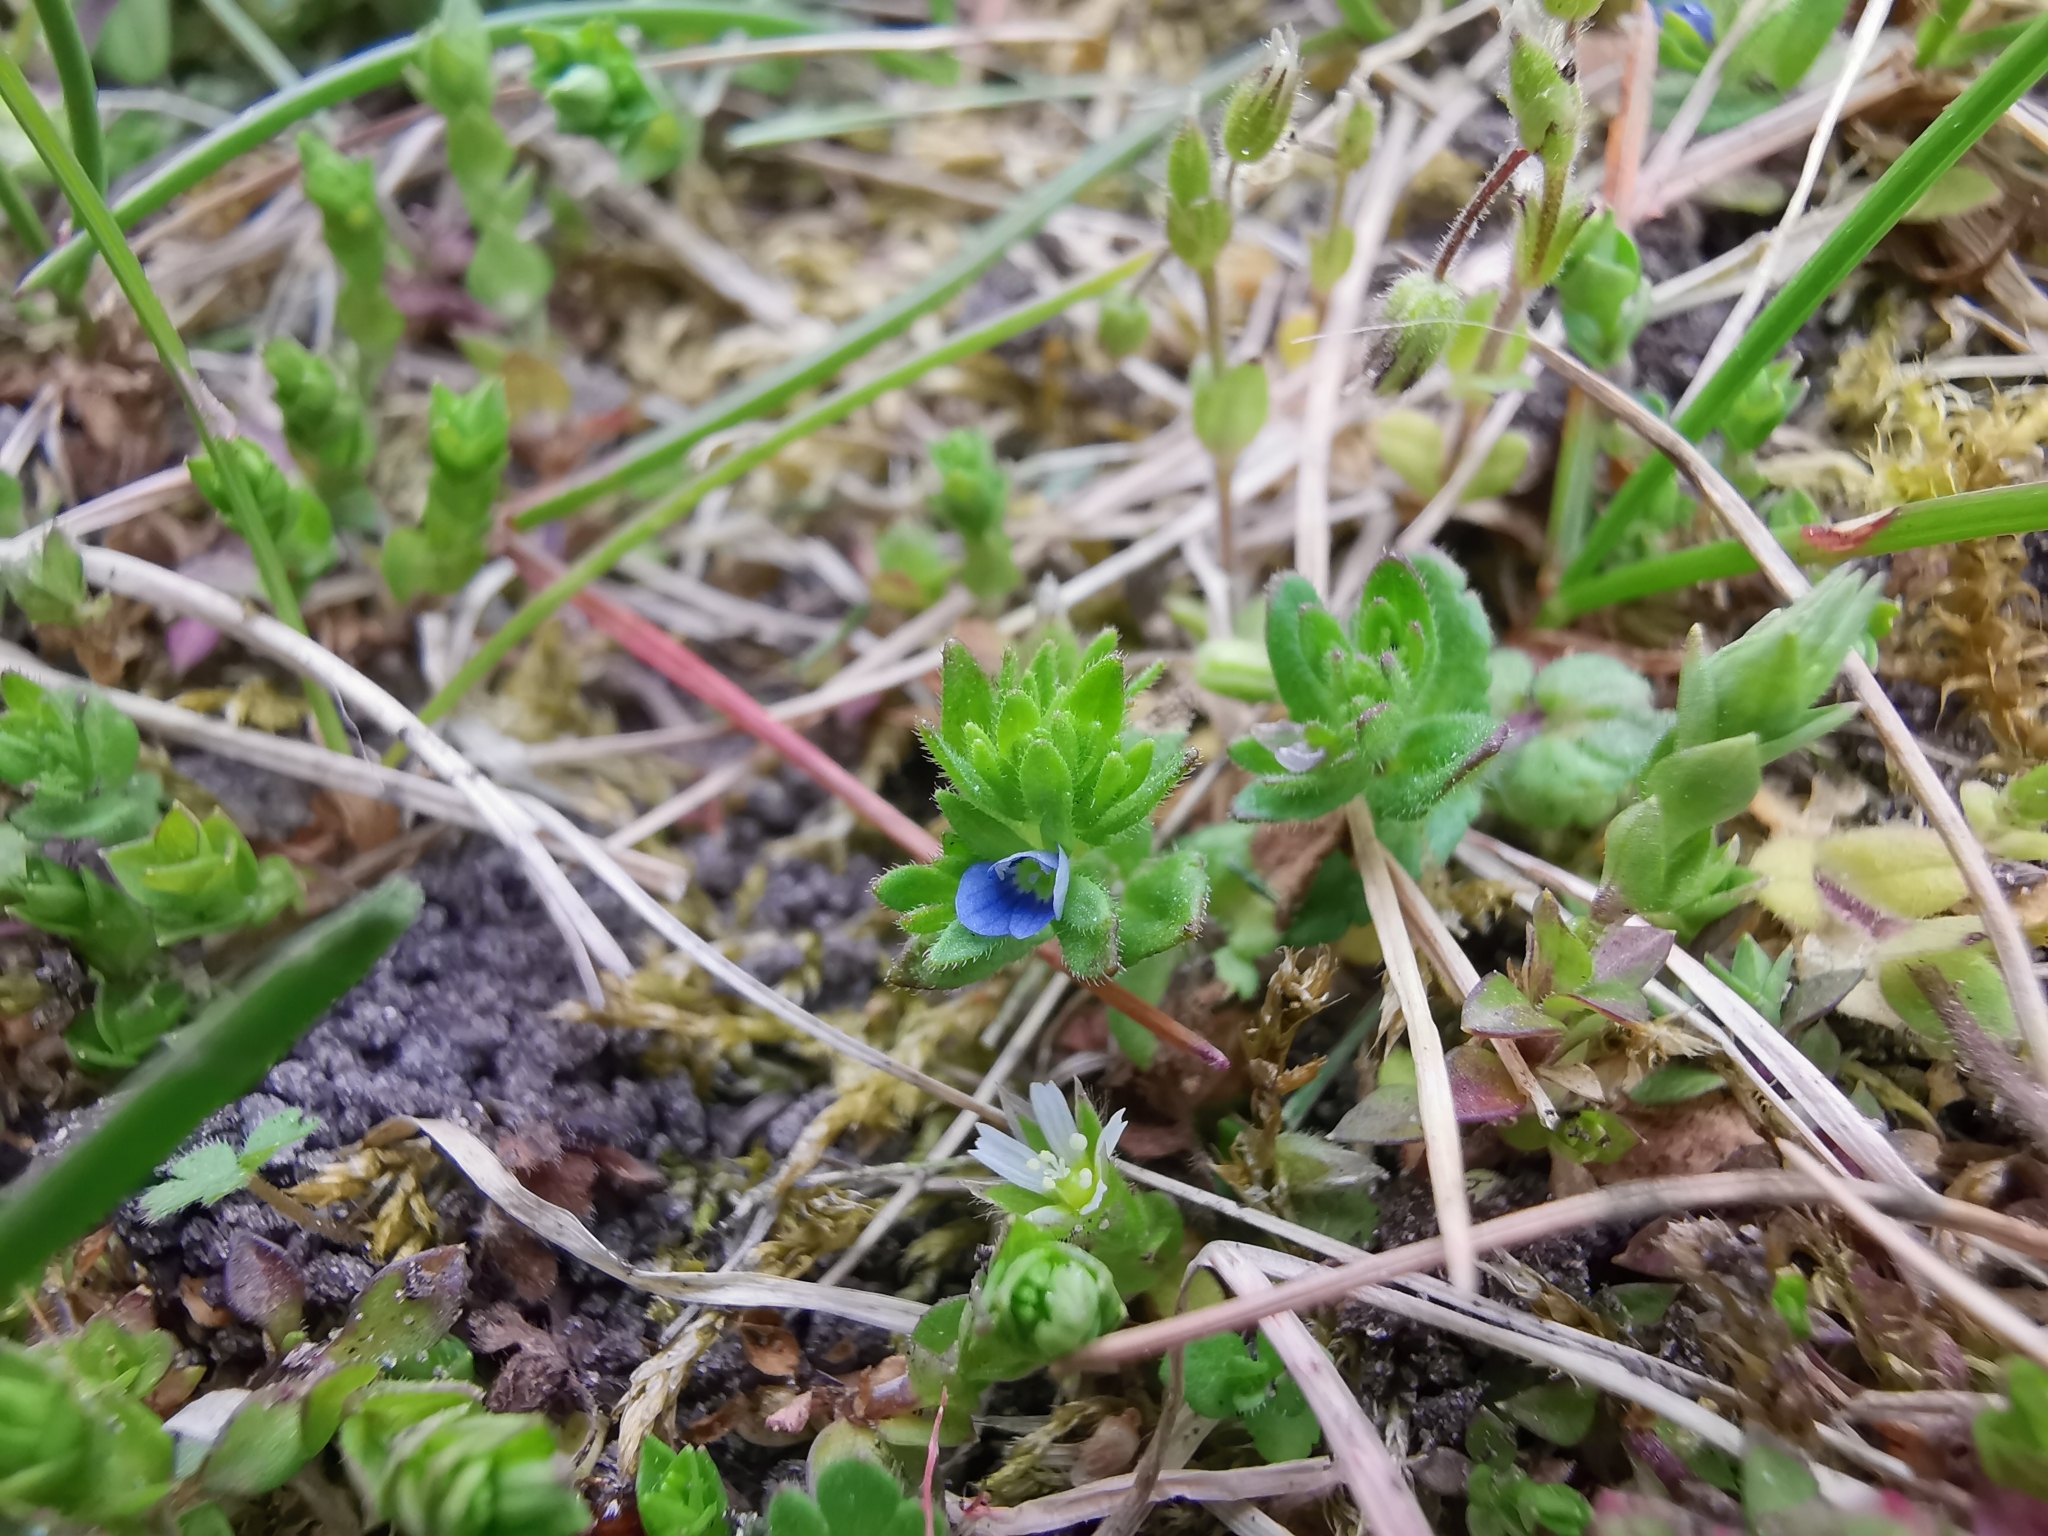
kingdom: Plantae
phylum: Tracheophyta
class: Magnoliopsida
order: Lamiales
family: Plantaginaceae
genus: Veronica
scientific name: Veronica arvensis
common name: Corn speedwell
